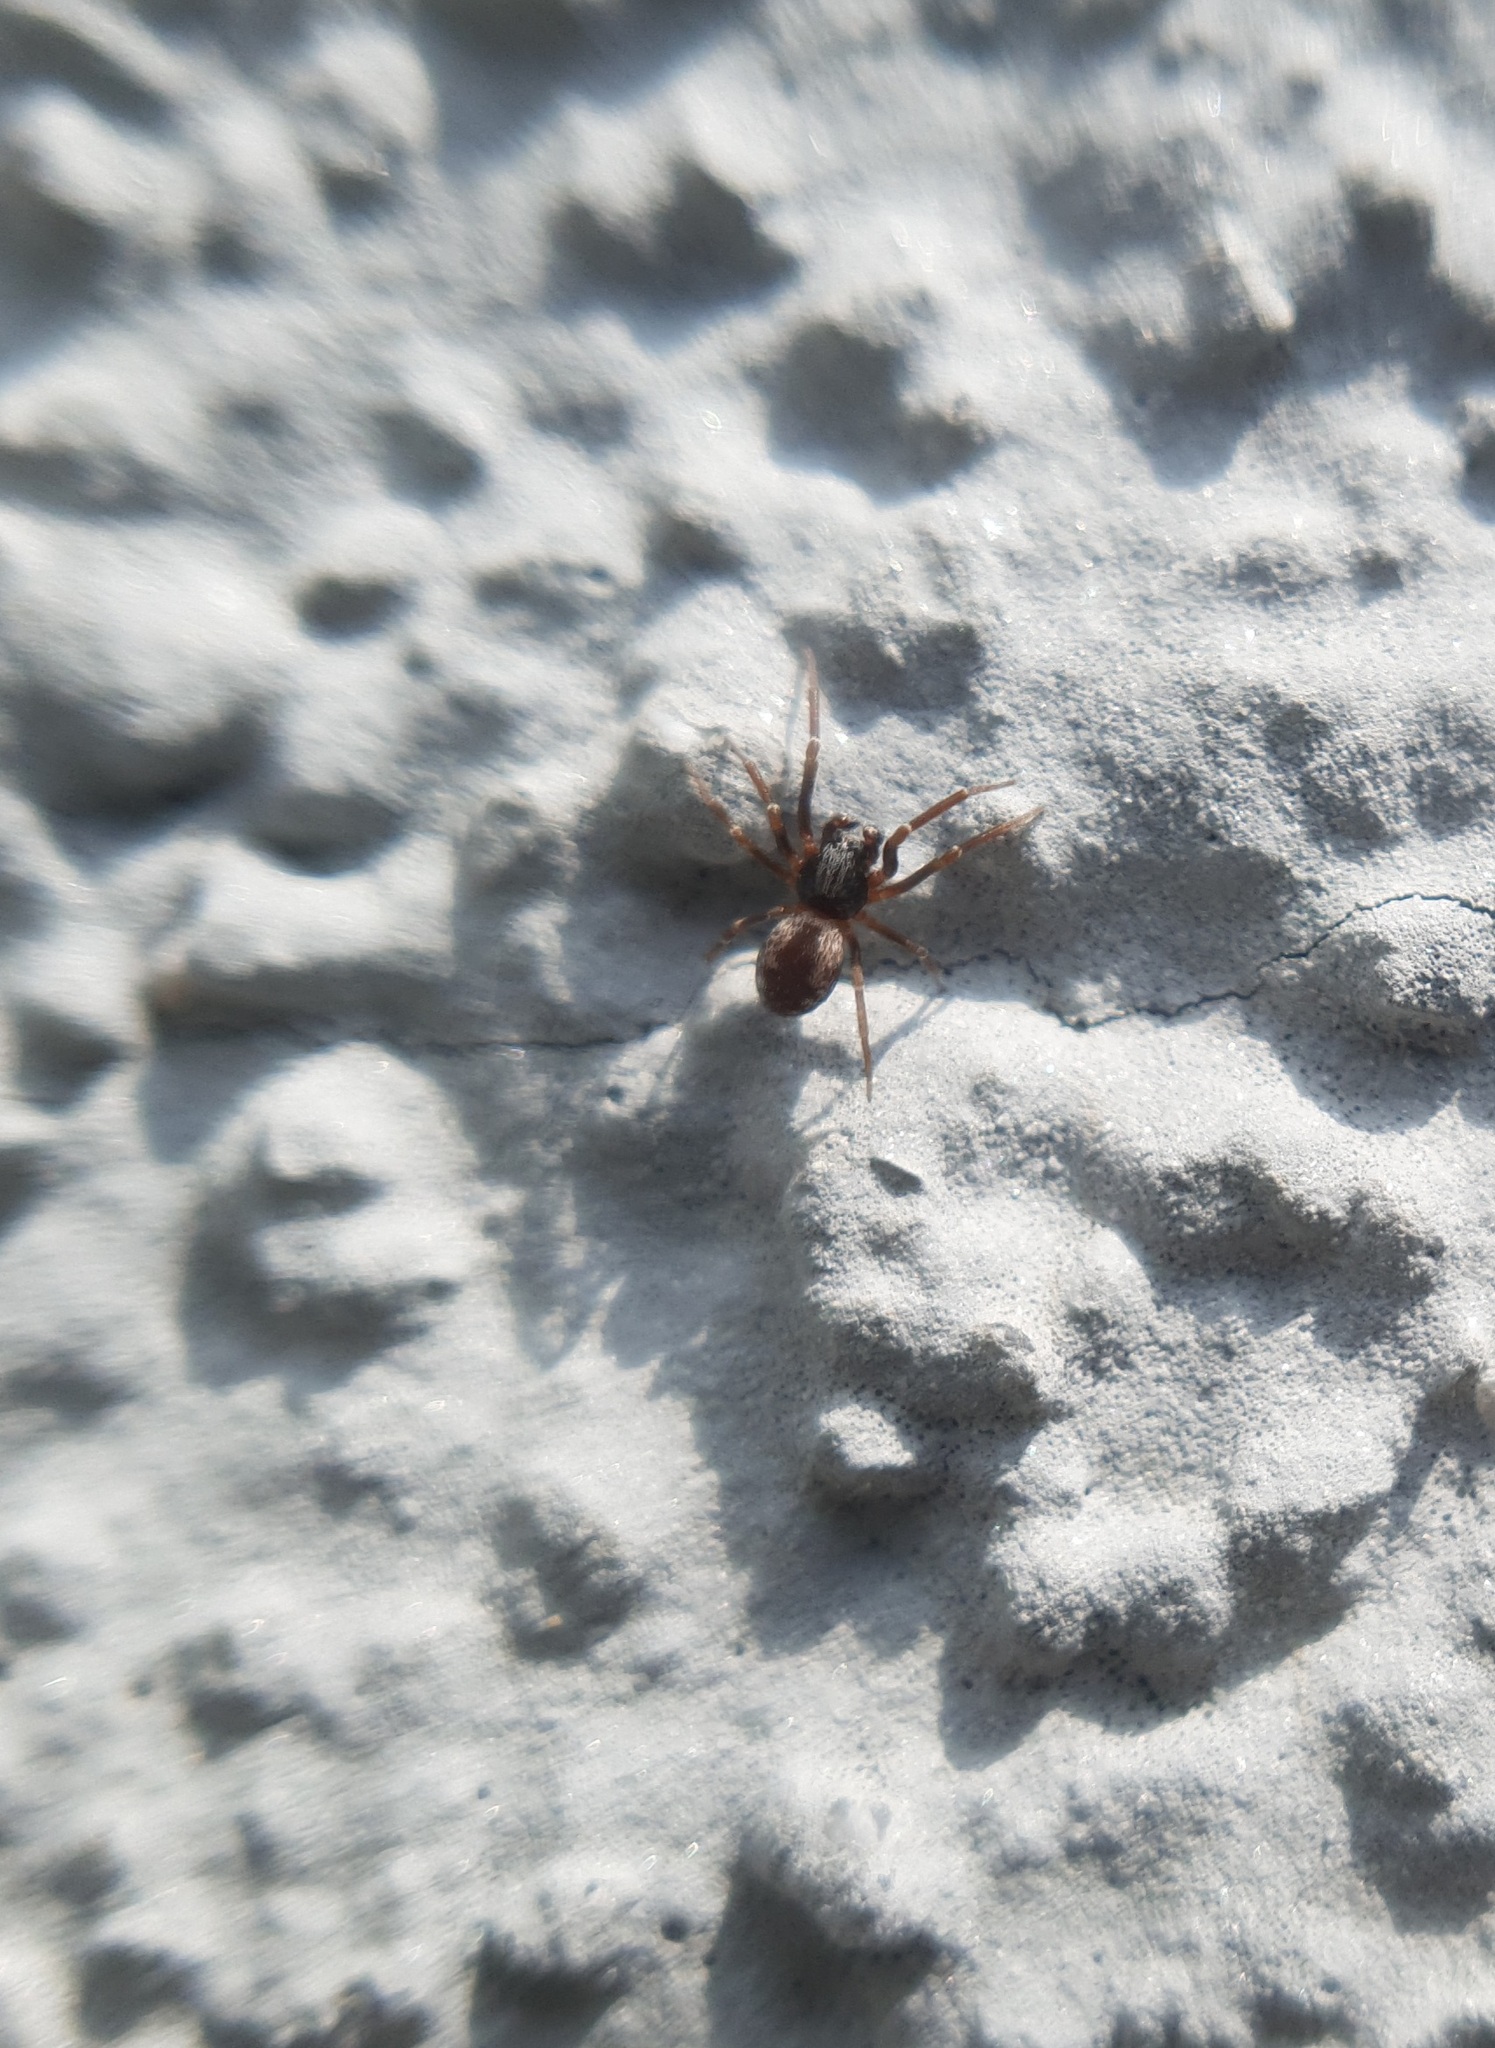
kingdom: Animalia
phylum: Arthropoda
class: Arachnida
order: Araneae
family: Dictynidae
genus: Brigittea
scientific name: Brigittea civica
